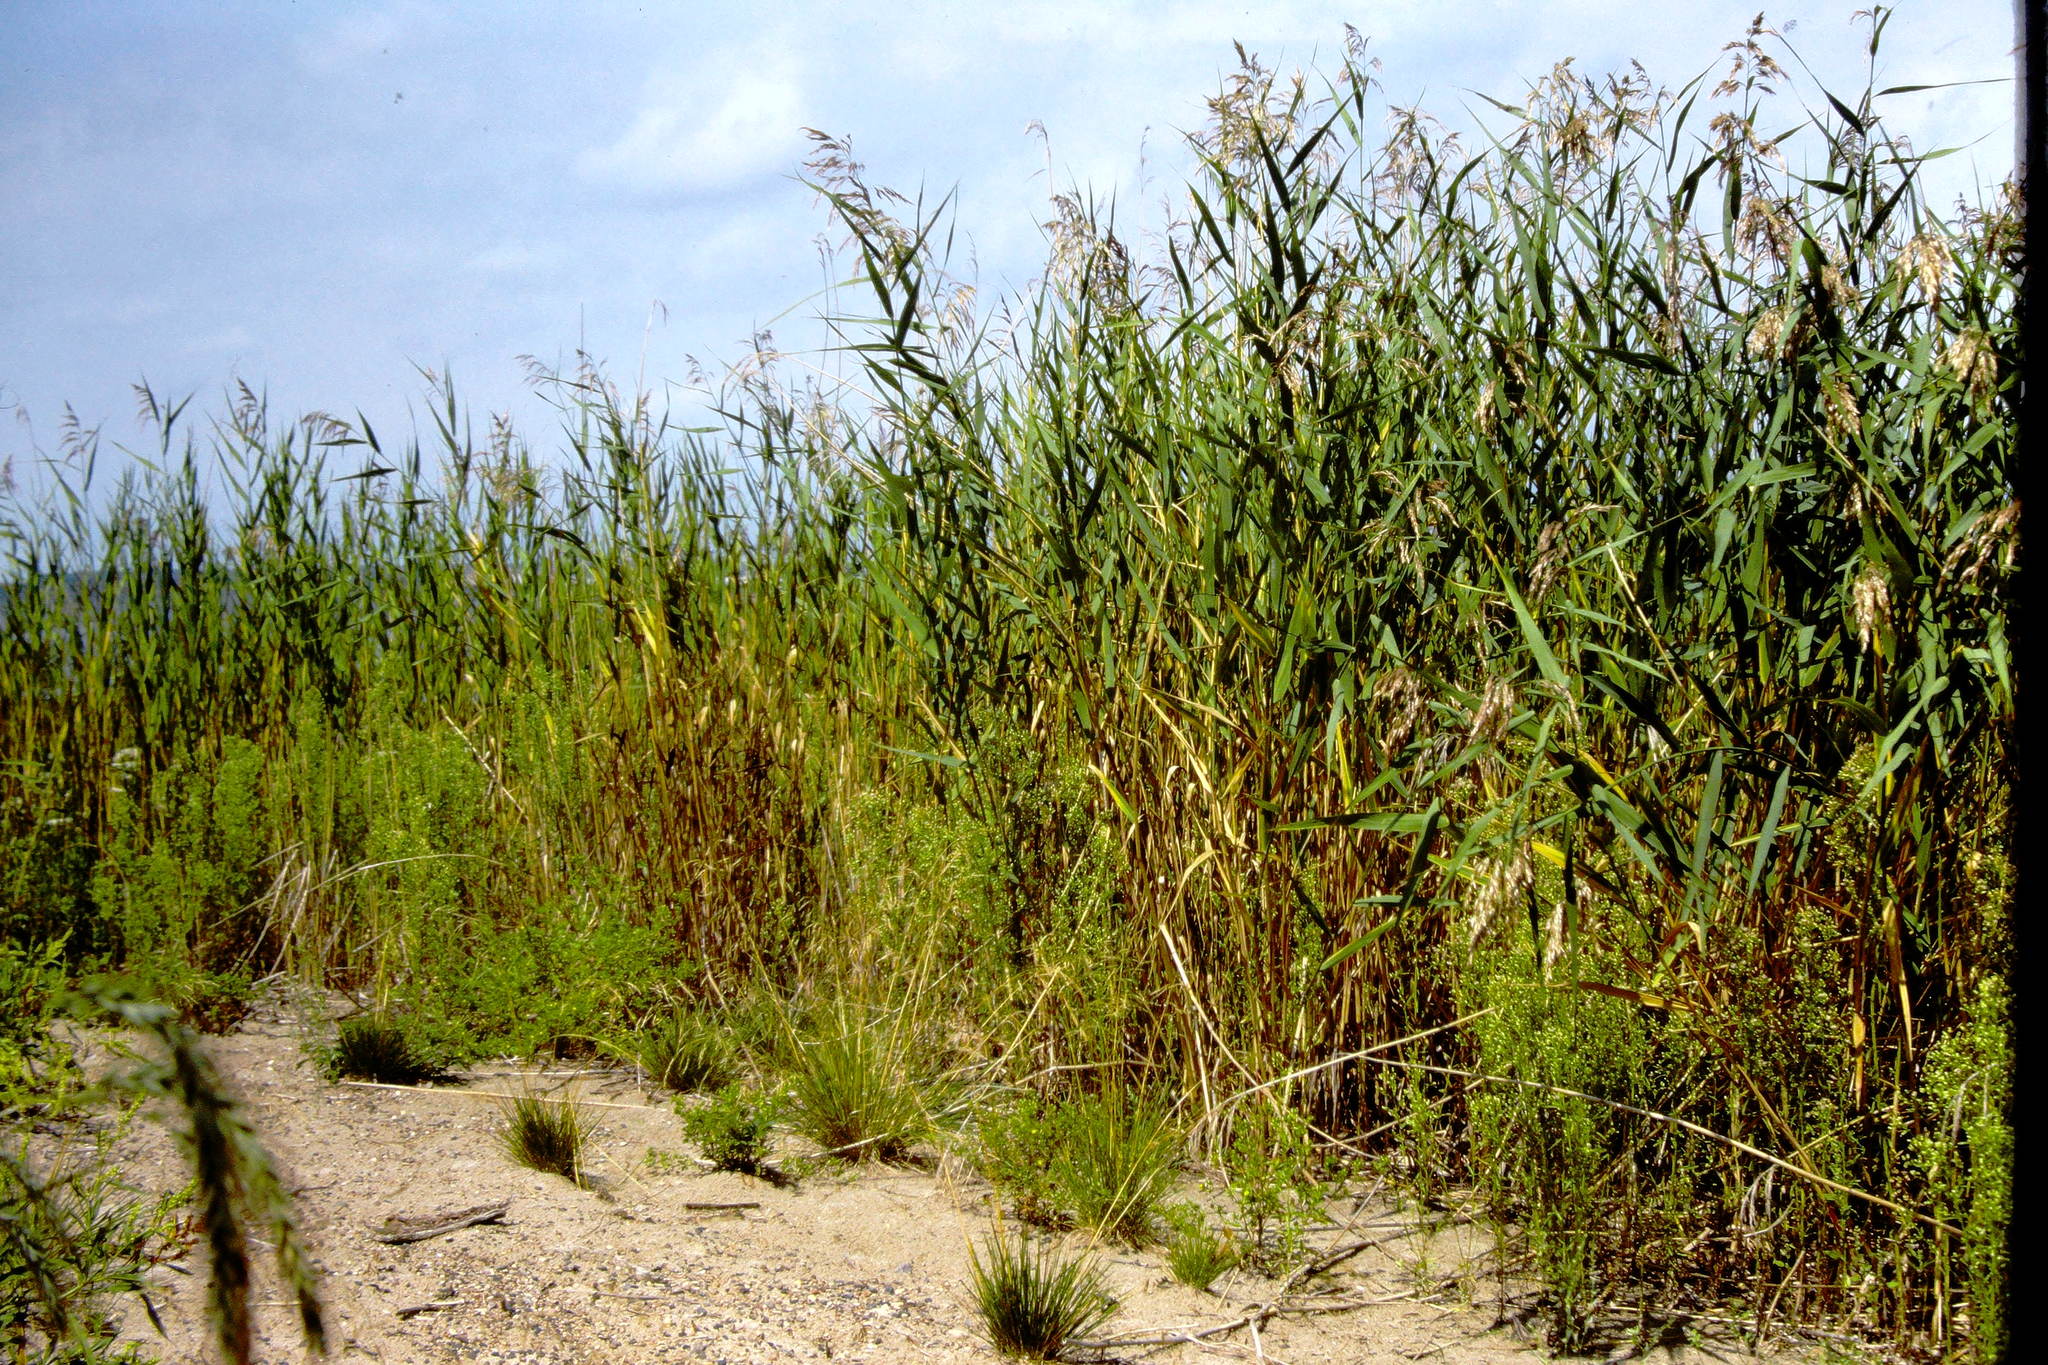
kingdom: Plantae
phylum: Tracheophyta
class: Liliopsida
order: Poales
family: Poaceae
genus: Phragmites
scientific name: Phragmites australis
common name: Common reed
